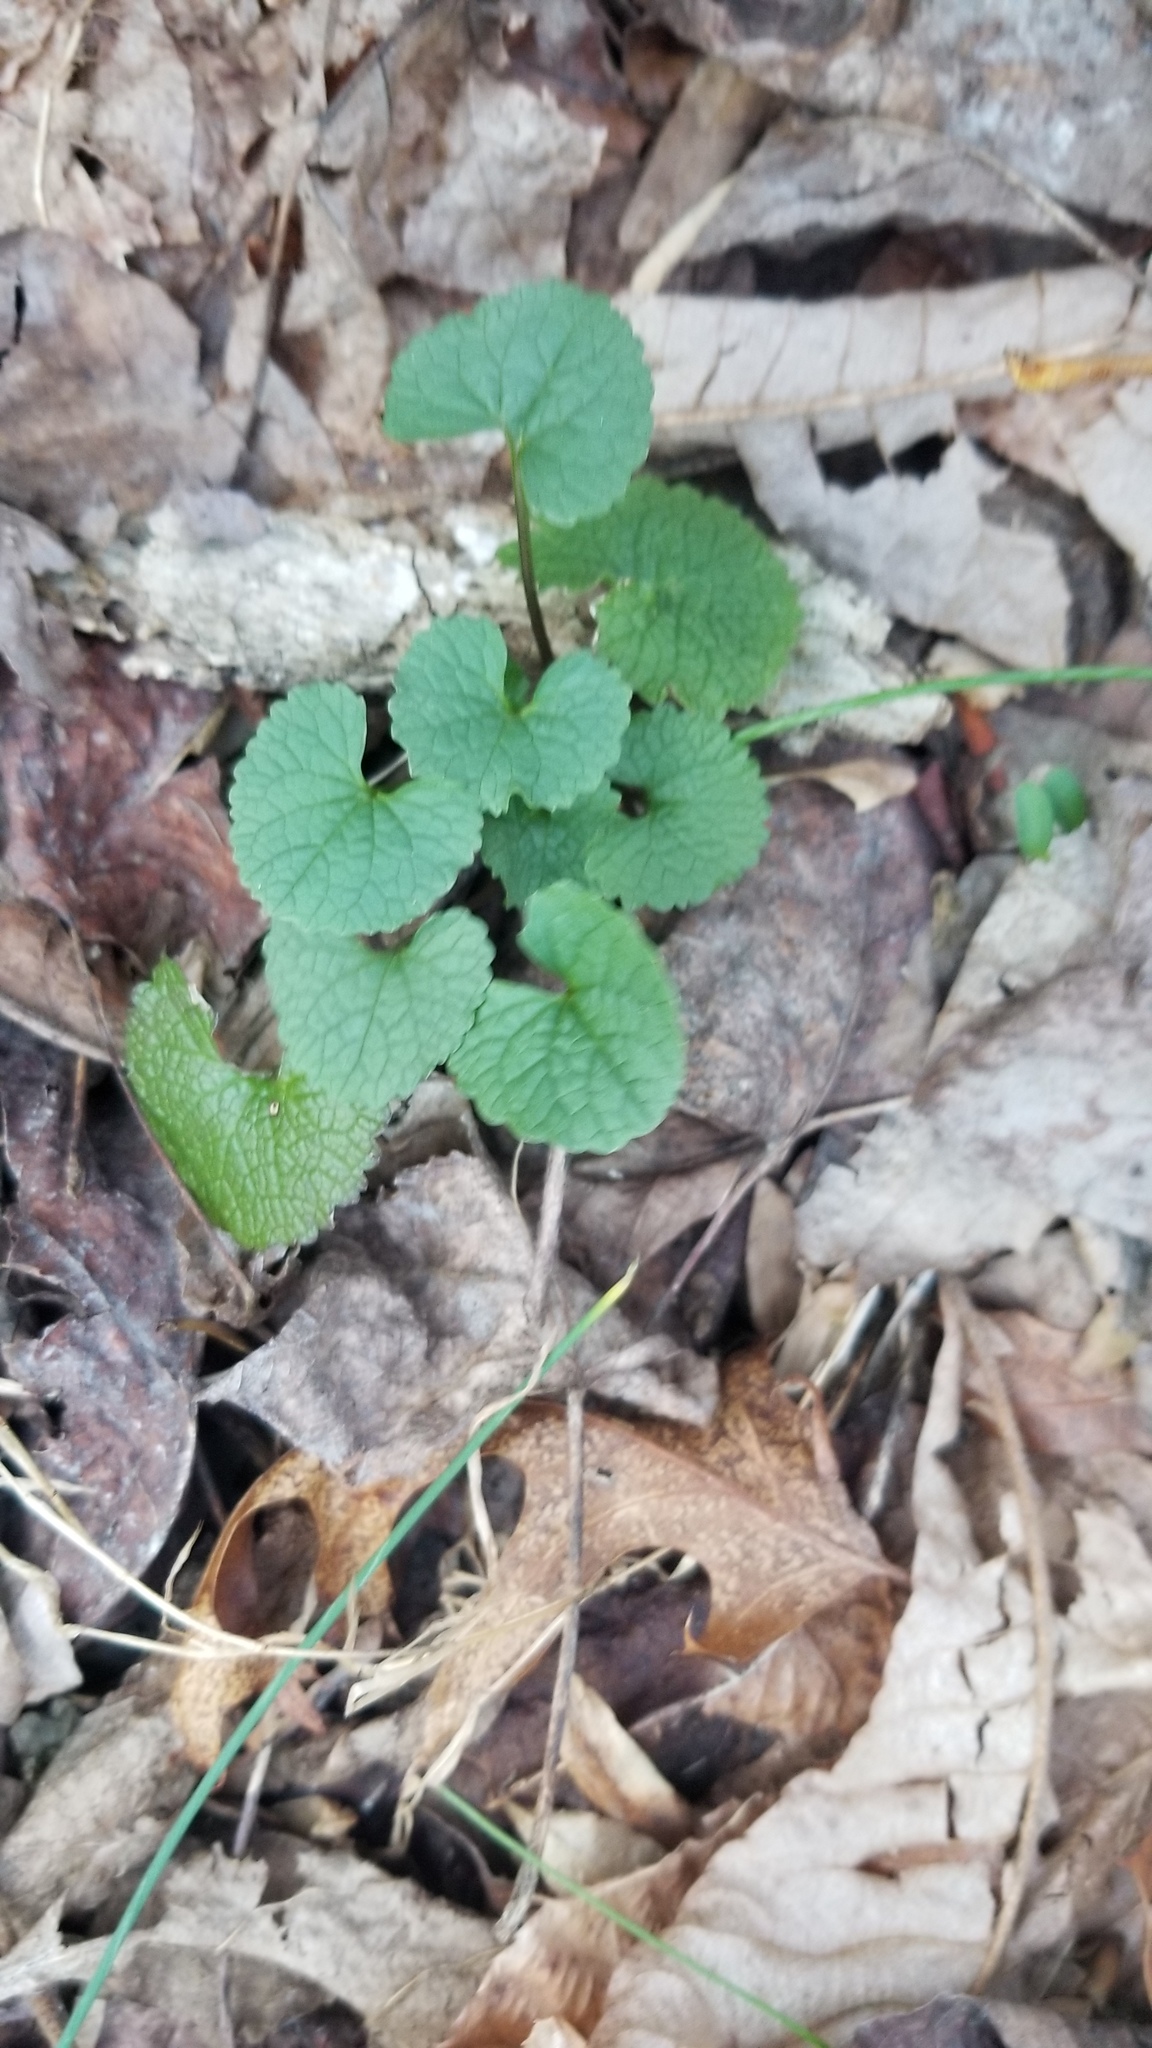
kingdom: Plantae
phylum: Tracheophyta
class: Magnoliopsida
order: Brassicales
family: Brassicaceae
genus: Alliaria
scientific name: Alliaria petiolata
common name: Garlic mustard
